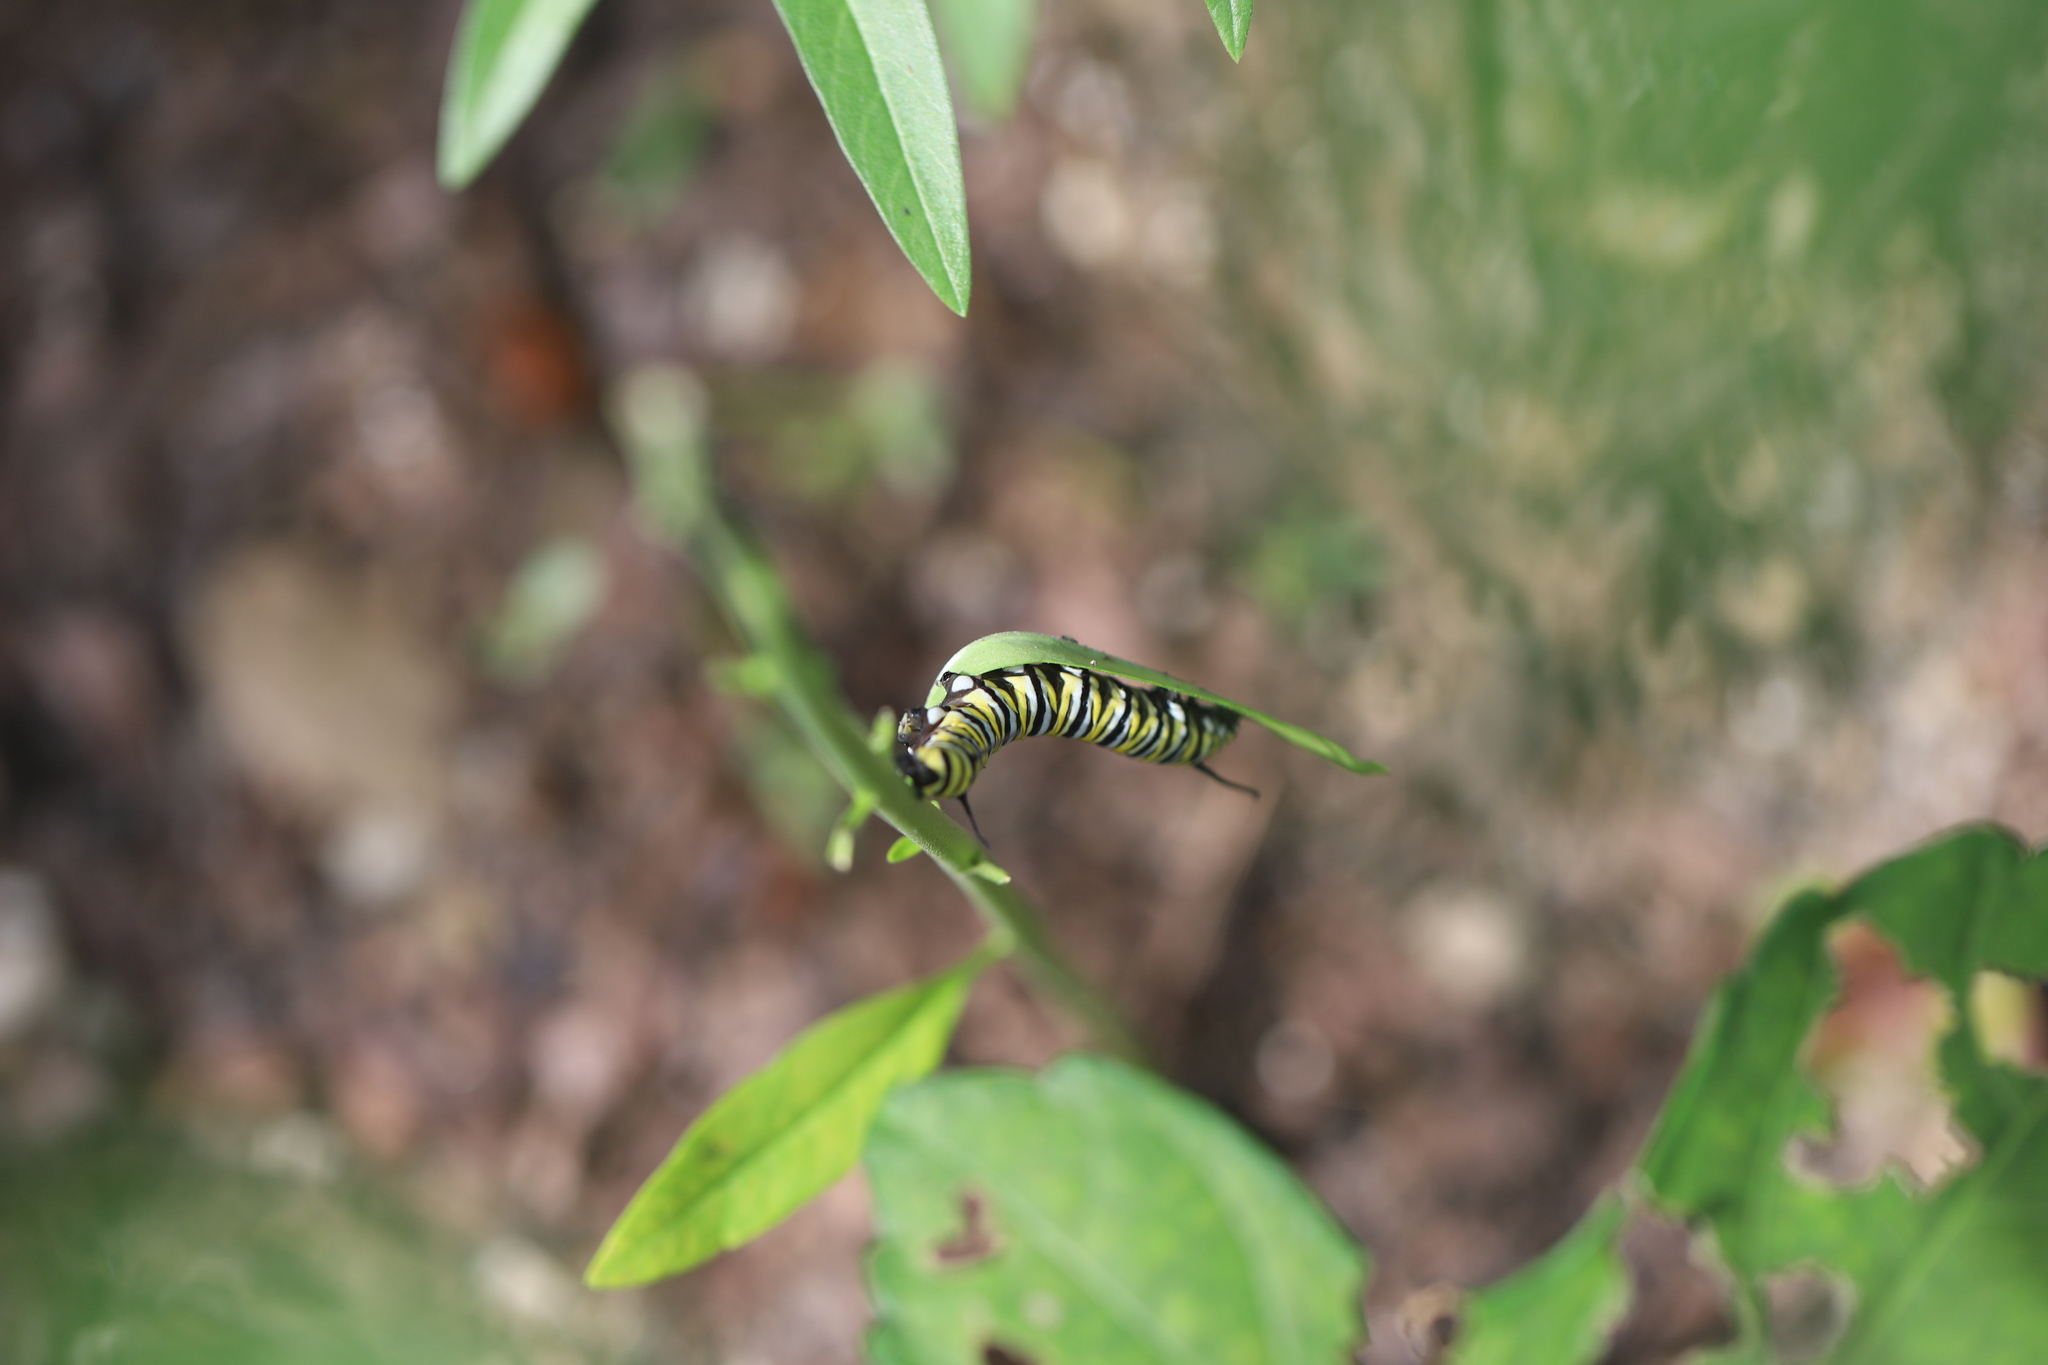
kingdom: Animalia
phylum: Arthropoda
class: Insecta
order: Lepidoptera
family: Nymphalidae
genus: Danaus
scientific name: Danaus plexippus
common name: Monarch
